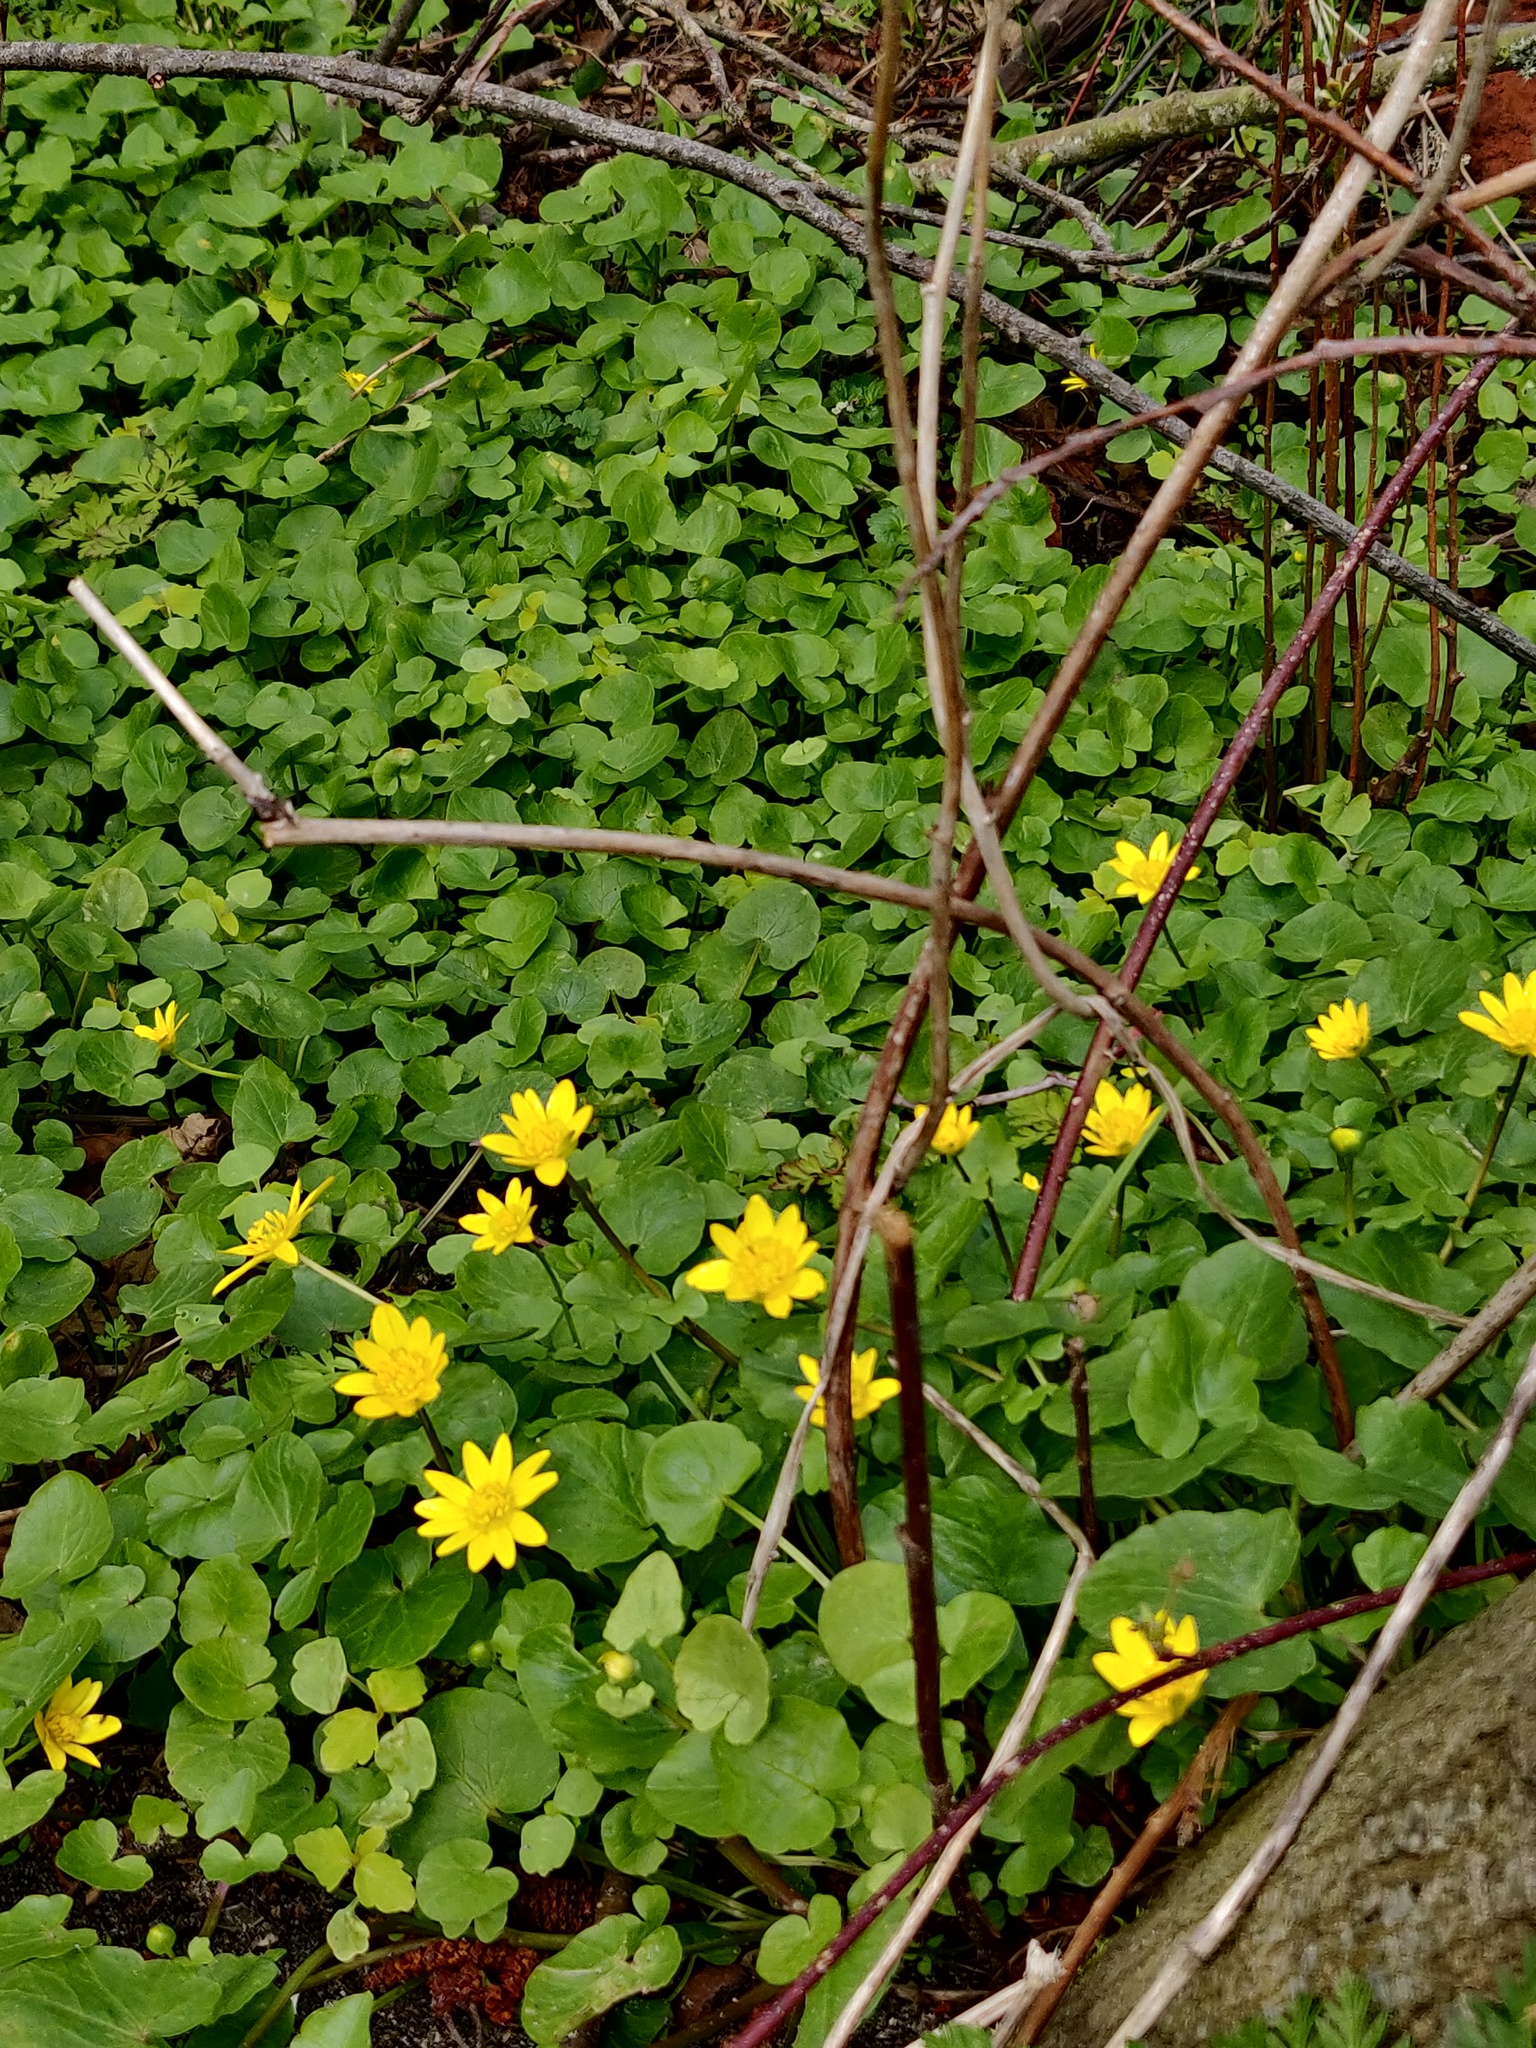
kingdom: Plantae
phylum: Tracheophyta
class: Magnoliopsida
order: Ranunculales
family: Ranunculaceae
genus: Ficaria
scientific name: Ficaria verna
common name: Lesser celandine
